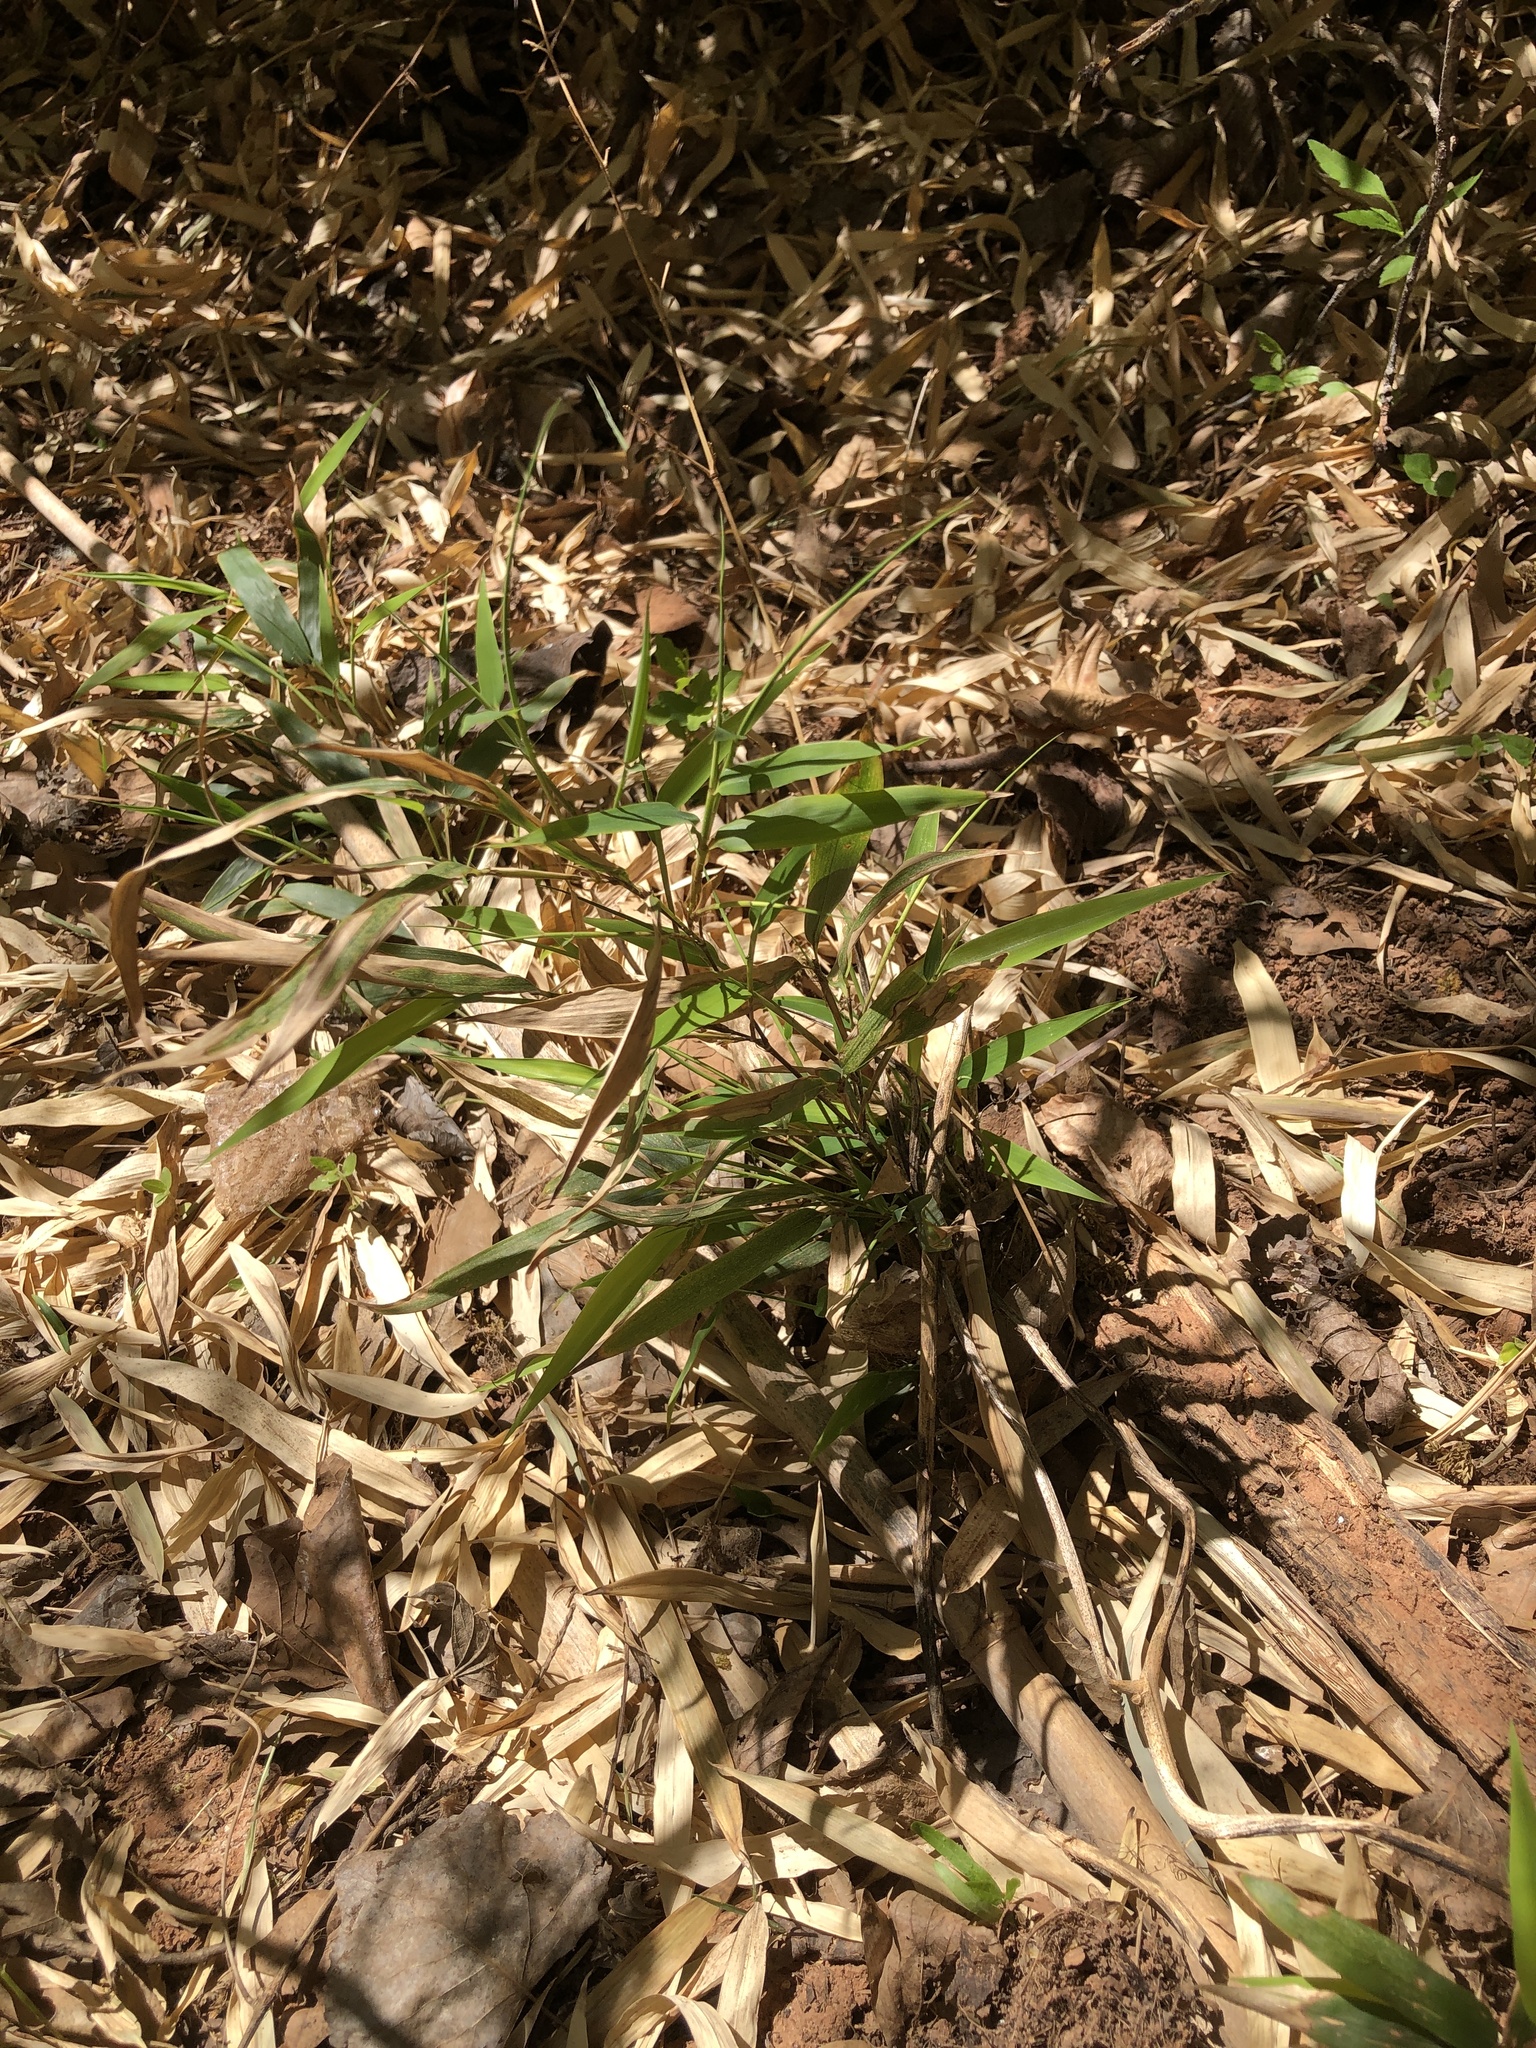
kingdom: Plantae
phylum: Tracheophyta
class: Liliopsida
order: Poales
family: Poaceae
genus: Phyllostachys
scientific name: Phyllostachys aurea
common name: Golden bamboo
